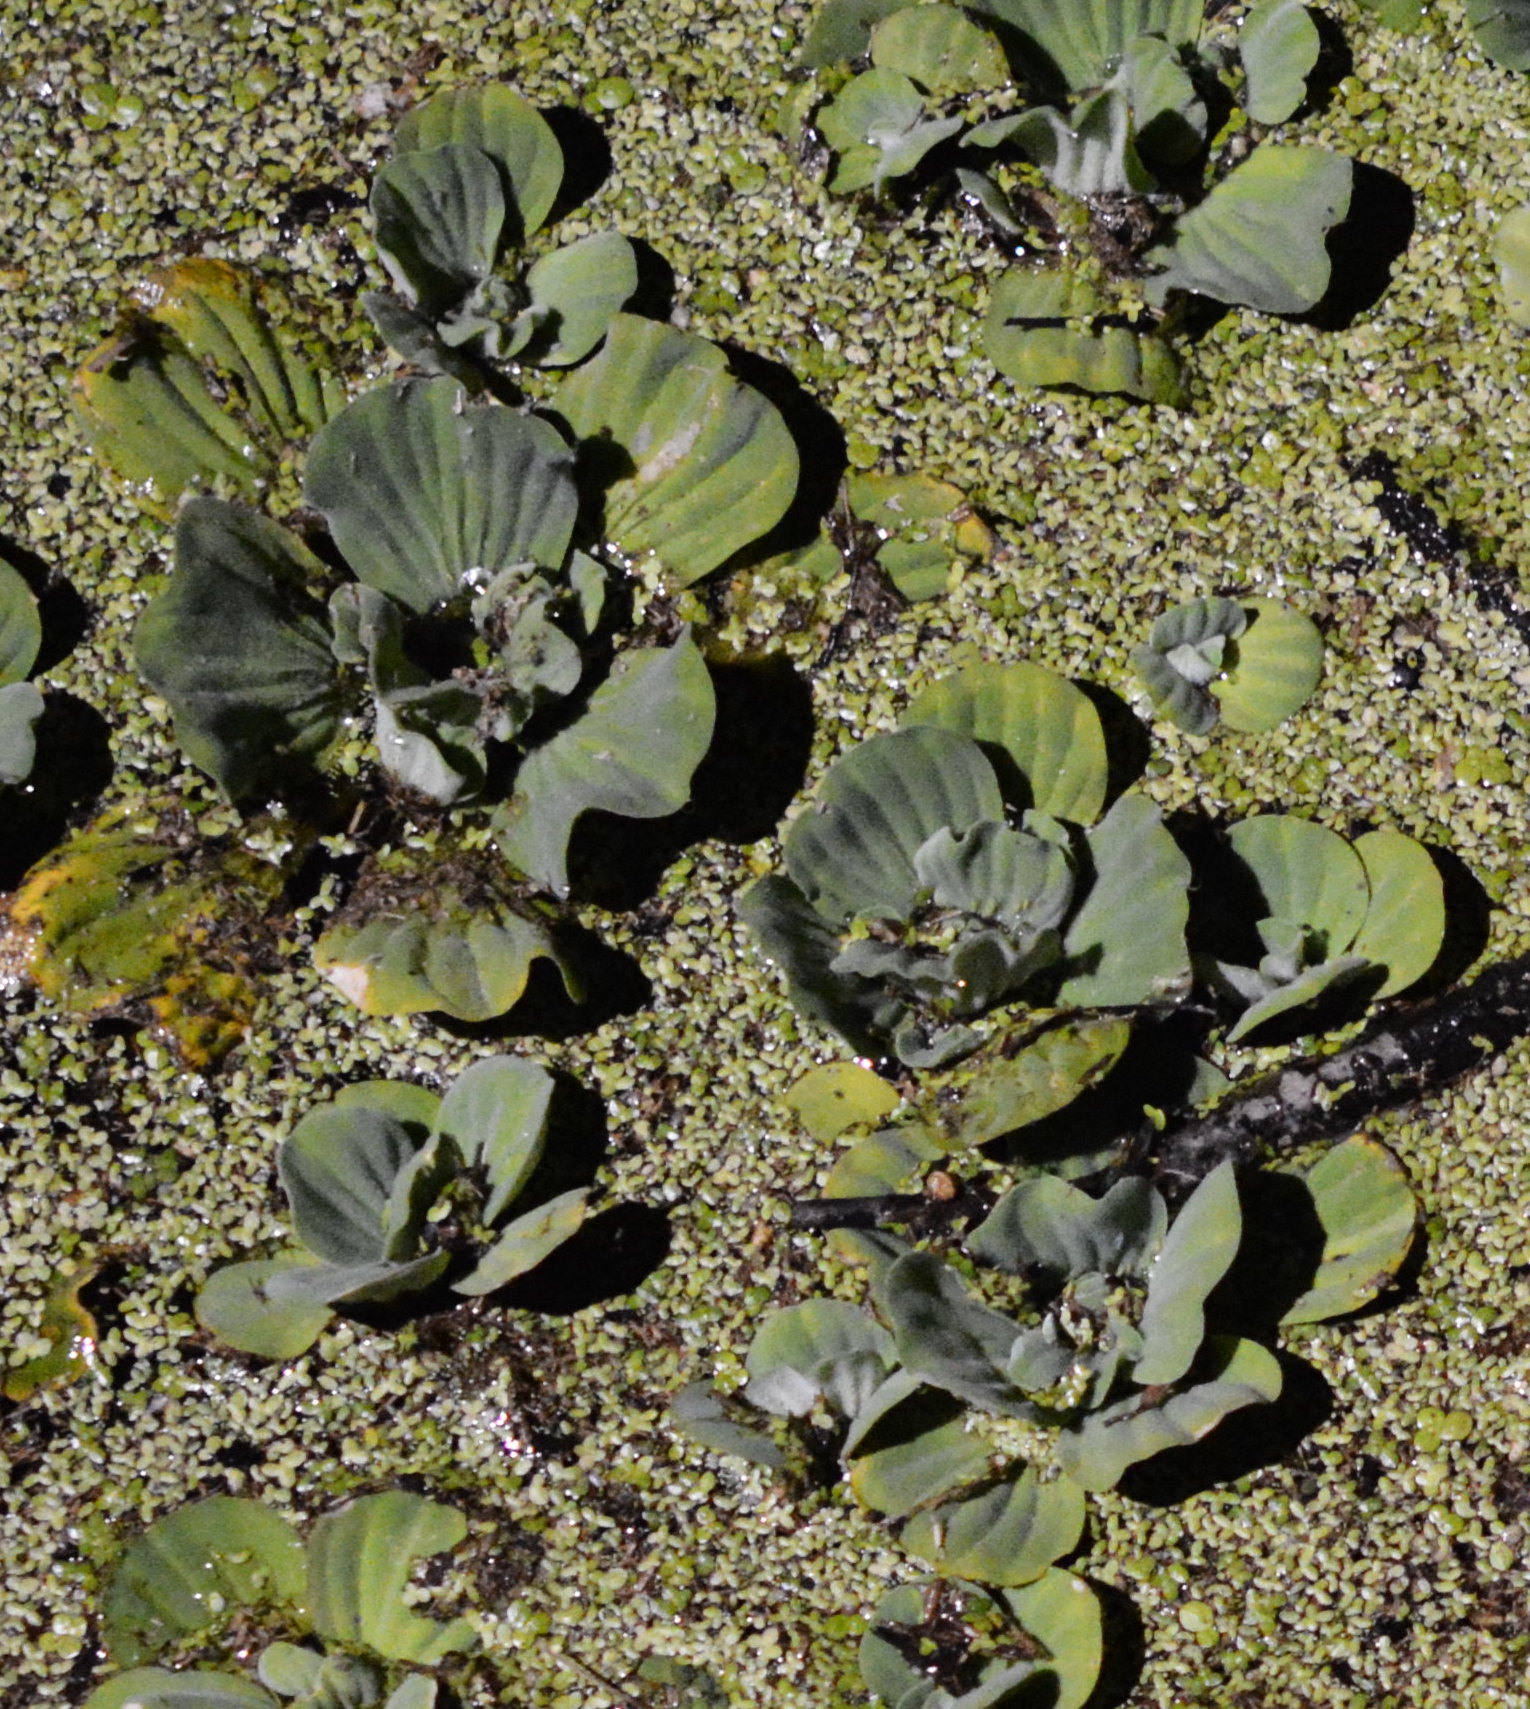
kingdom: Plantae
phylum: Tracheophyta
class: Liliopsida
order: Alismatales
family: Araceae
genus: Pistia
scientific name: Pistia stratiotes
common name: Water lettuce
